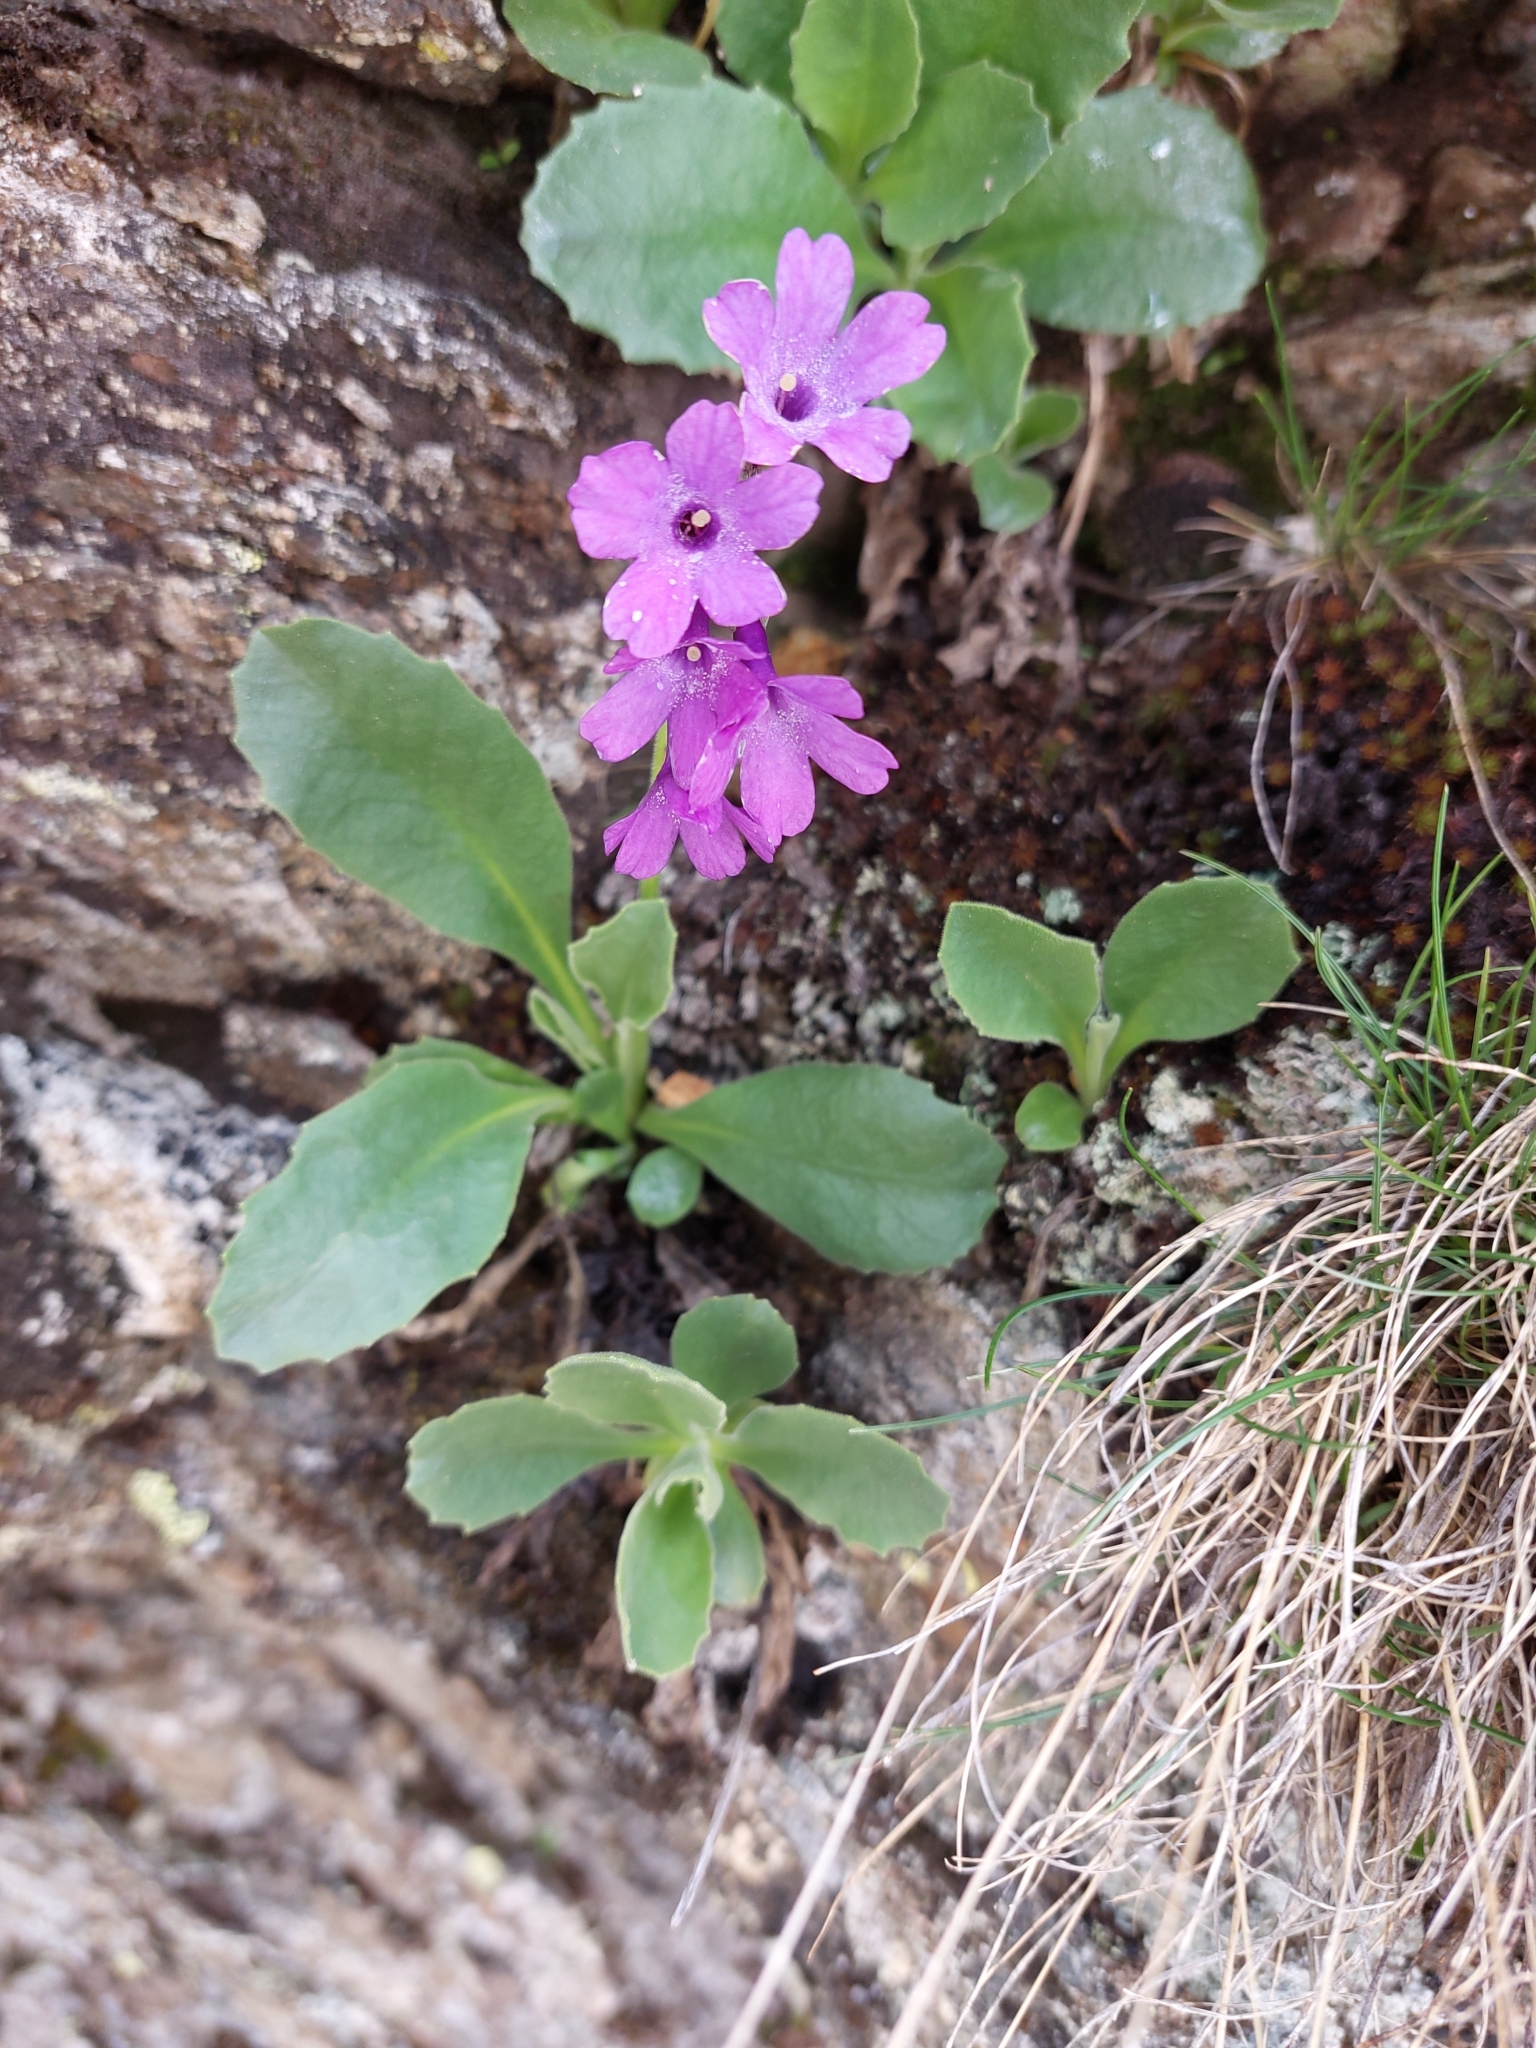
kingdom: Plantae
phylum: Tracheophyta
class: Magnoliopsida
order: Ericales
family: Primulaceae
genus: Primula
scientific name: Primula latifolia
